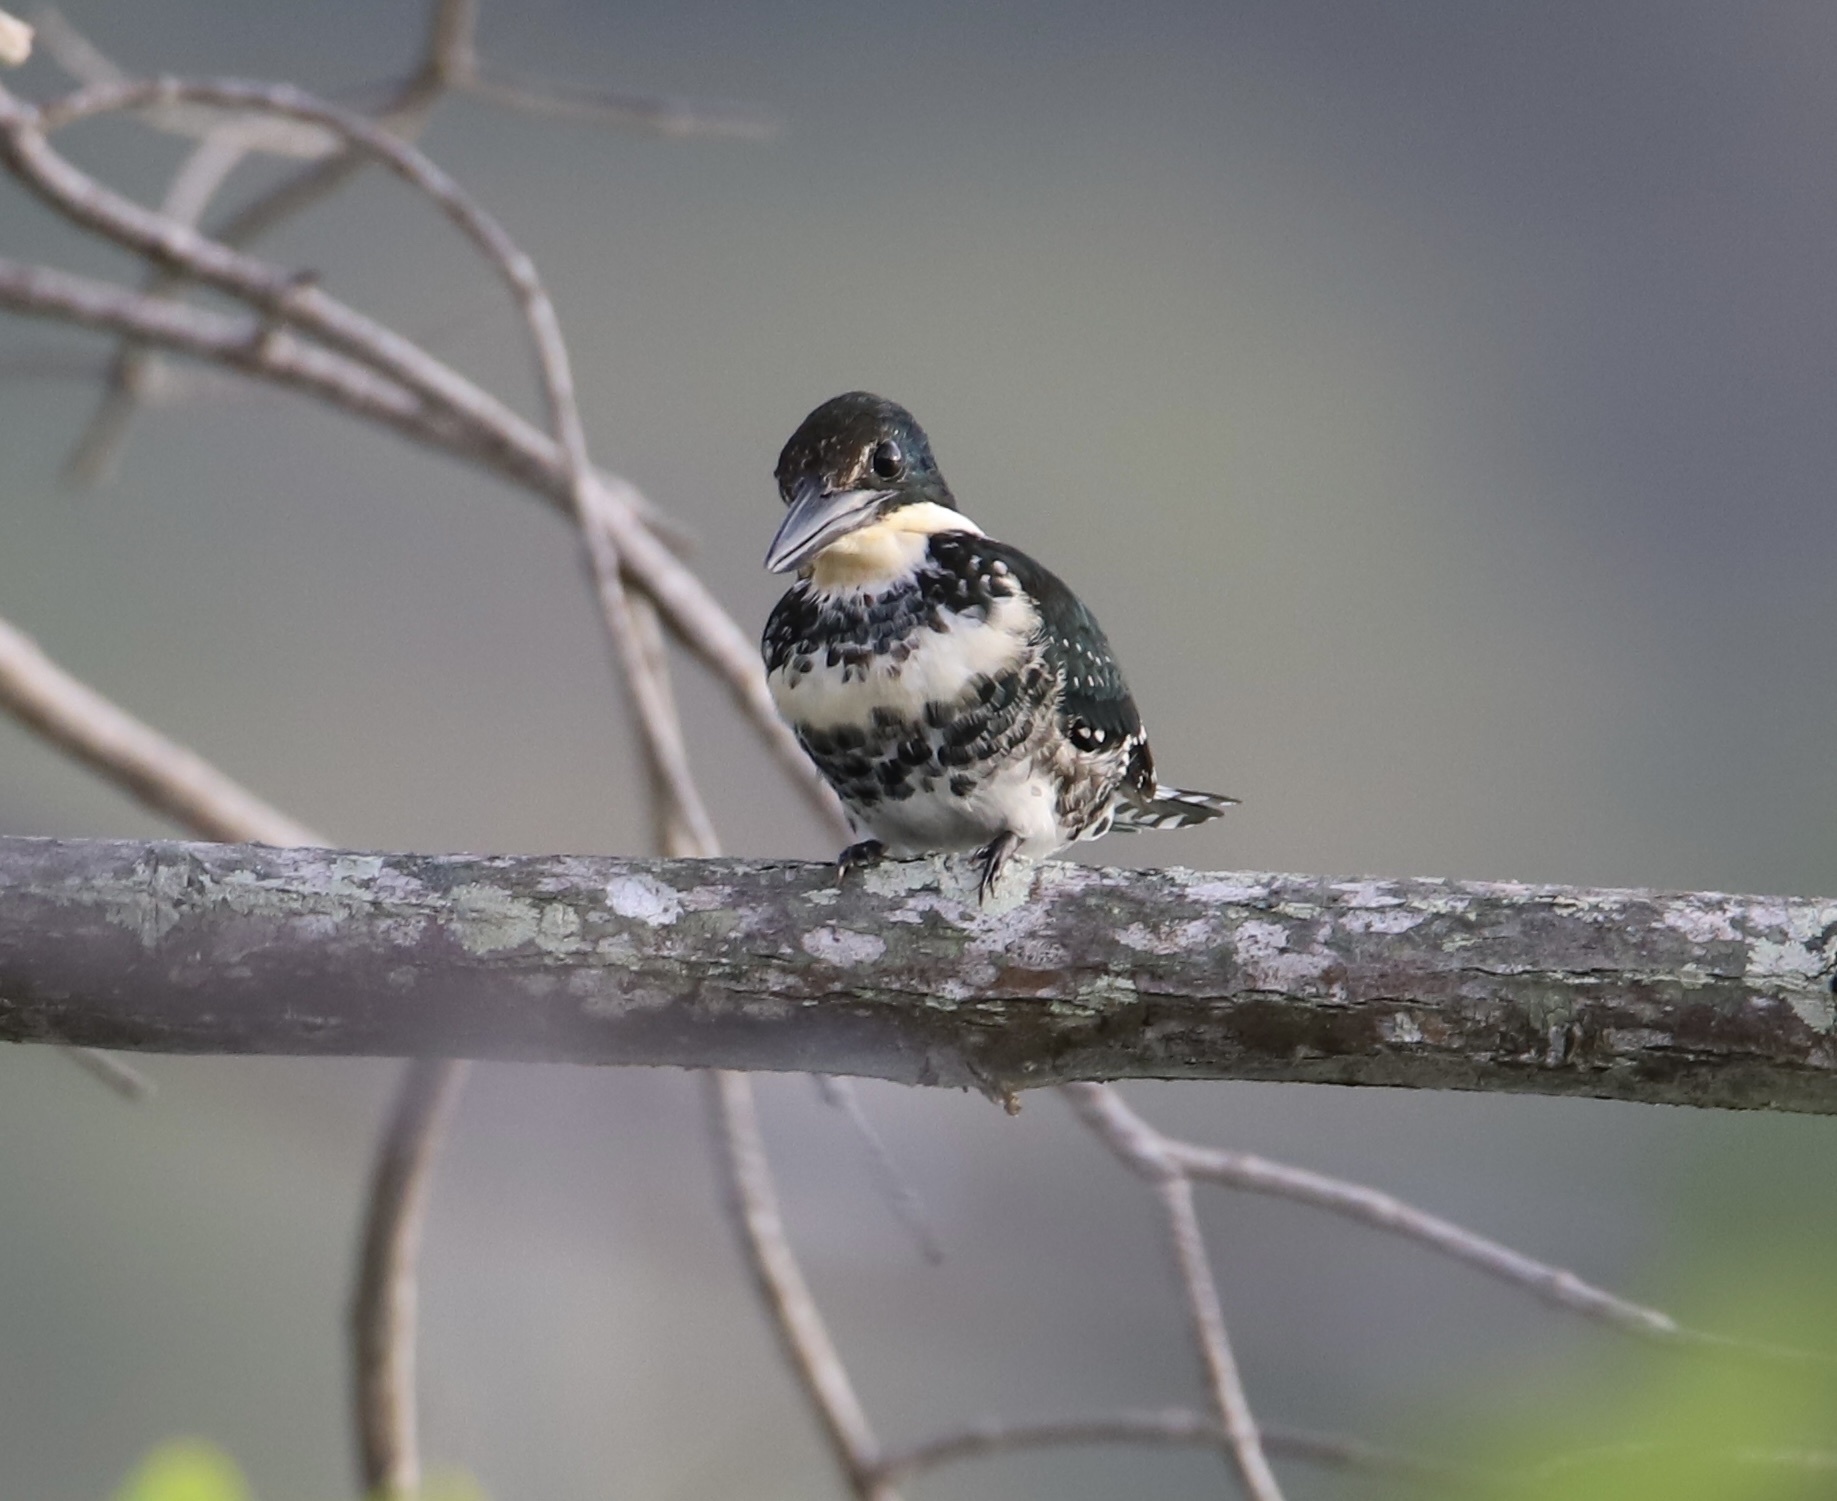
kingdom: Animalia
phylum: Chordata
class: Aves
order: Coraciiformes
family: Alcedinidae
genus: Chloroceryle
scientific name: Chloroceryle americana
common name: Green kingfisher
